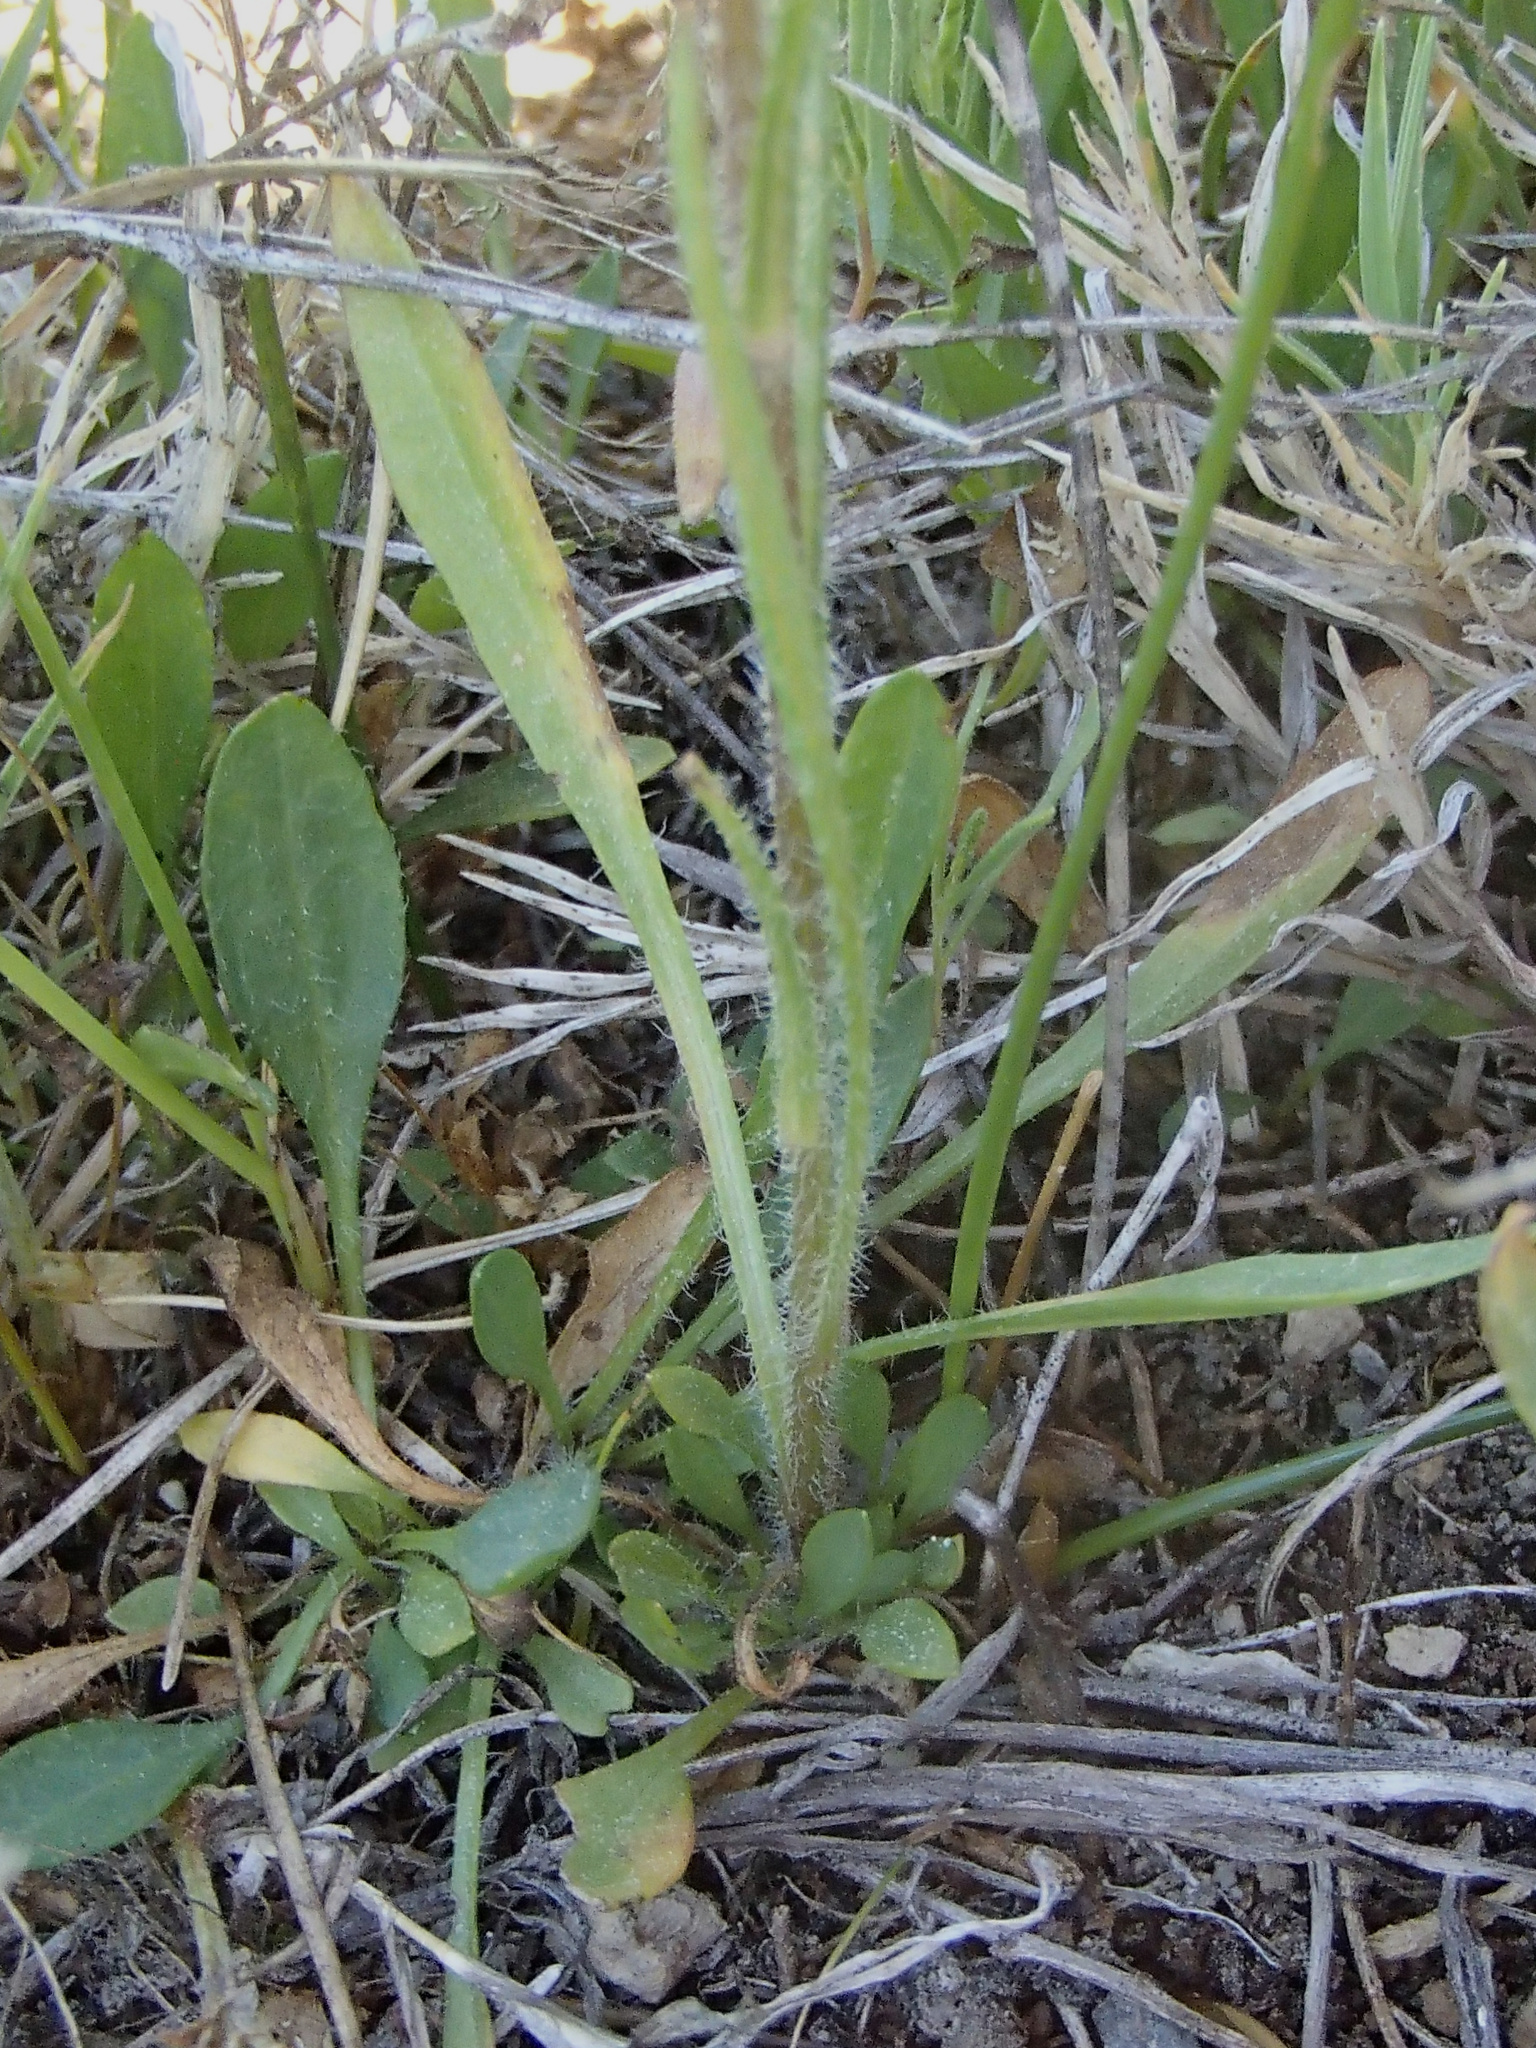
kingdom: Plantae
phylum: Tracheophyta
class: Magnoliopsida
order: Asterales
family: Asteraceae
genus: Erigeron
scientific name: Erigeron lonchophyllus
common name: Short-ray fleabane
